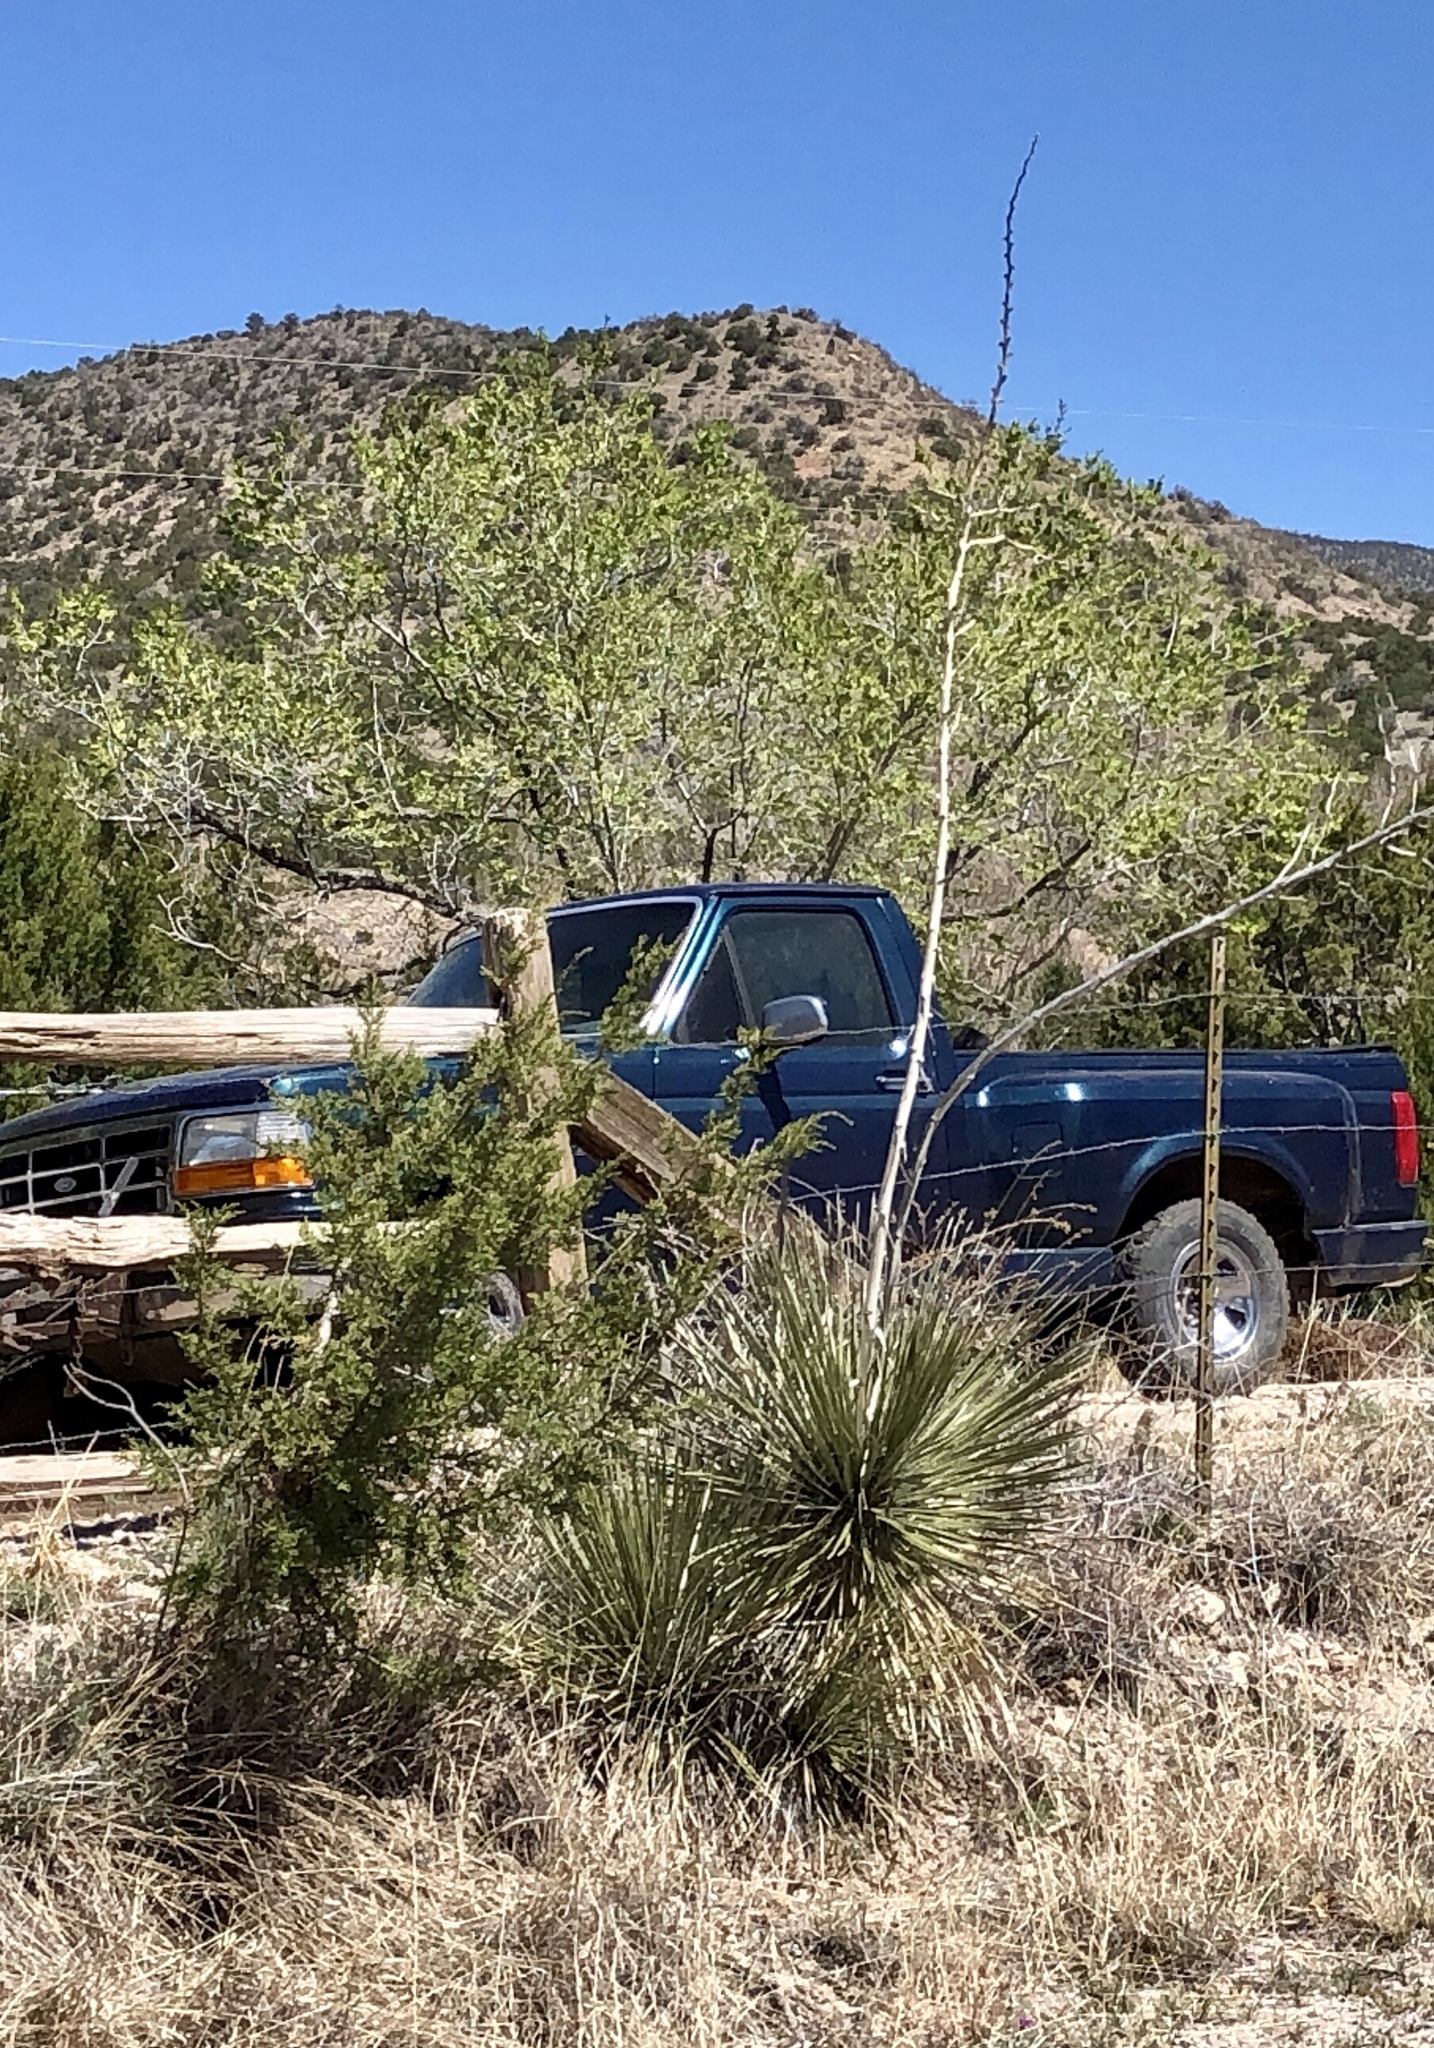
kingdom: Plantae
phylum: Tracheophyta
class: Liliopsida
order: Asparagales
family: Asparagaceae
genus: Yucca
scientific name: Yucca elata
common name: Palmella
